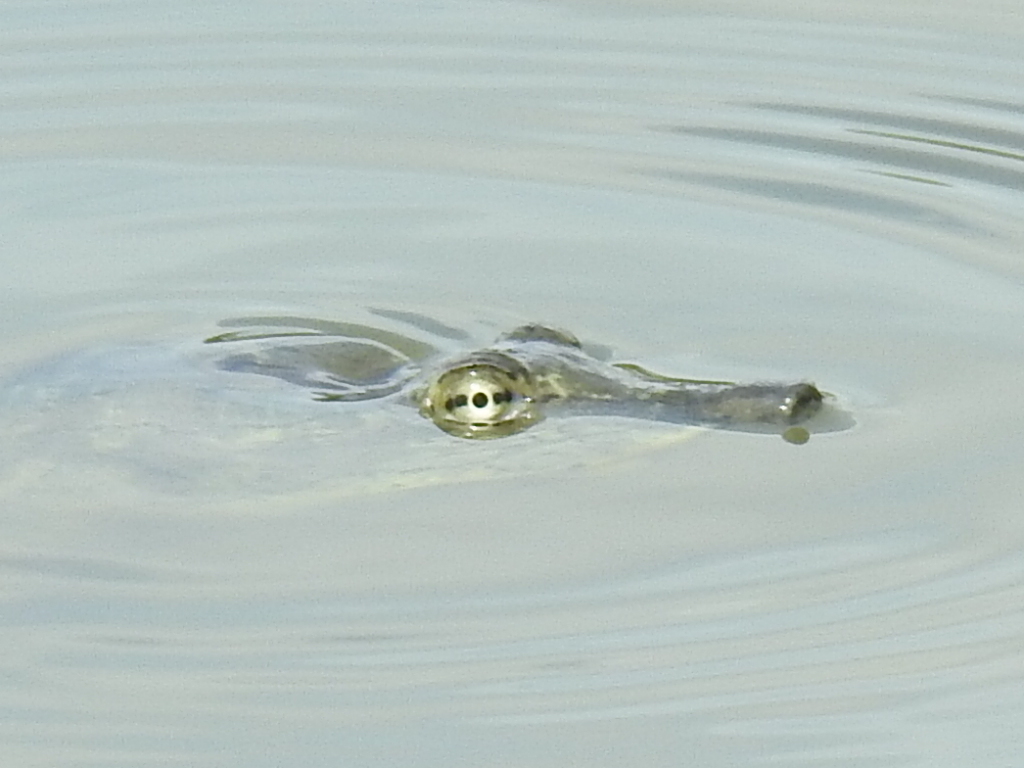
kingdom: Animalia
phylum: Chordata
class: Testudines
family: Trionychidae
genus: Apalone
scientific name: Apalone spinifera
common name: Spiny softshell turtle
